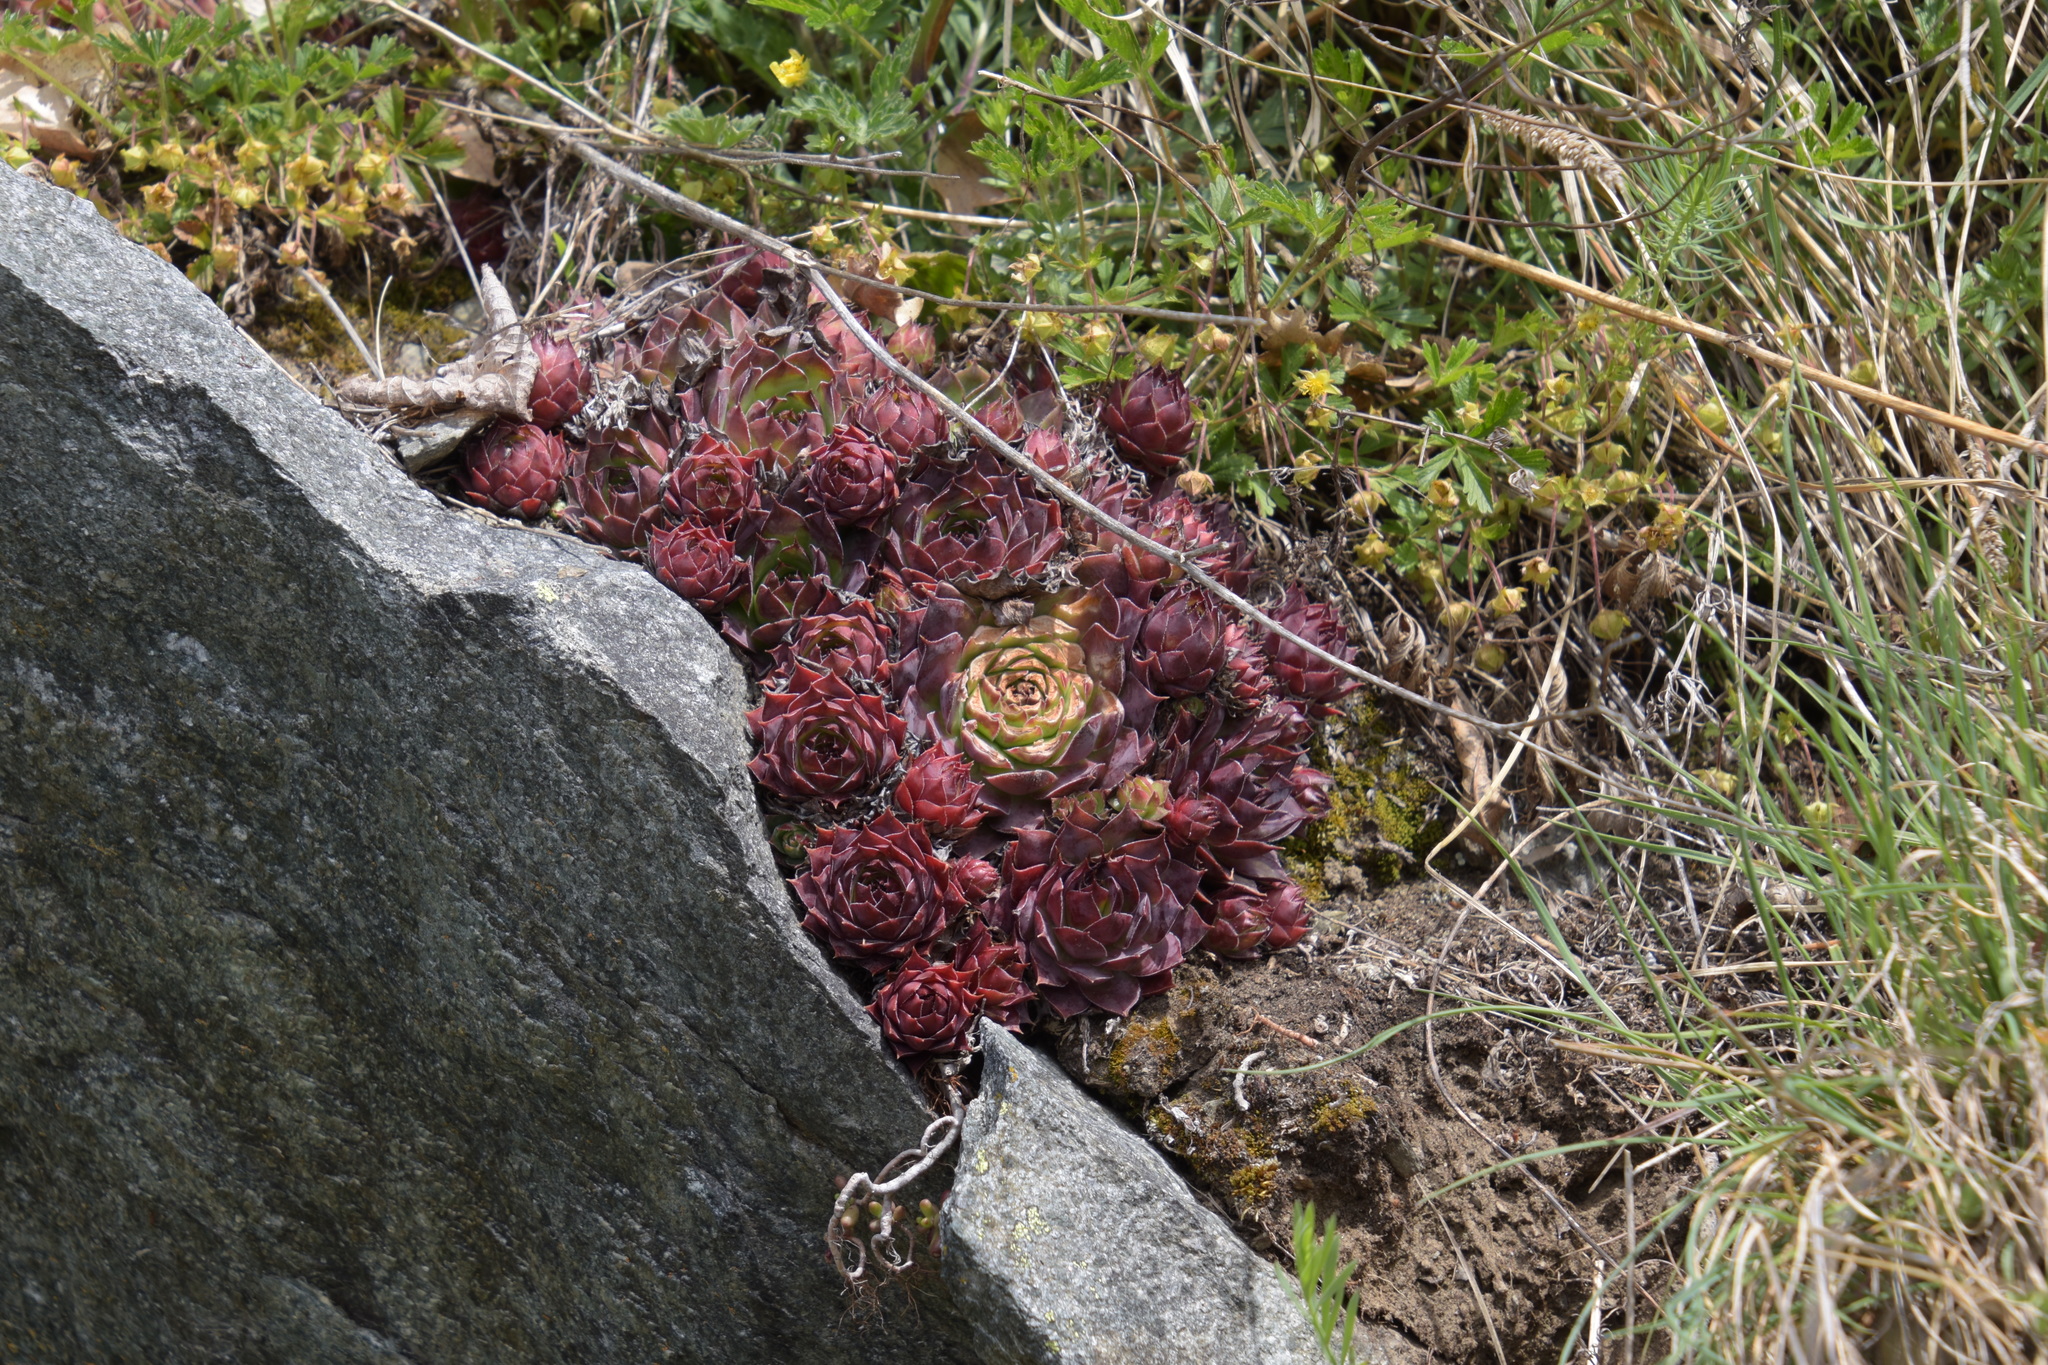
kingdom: Plantae
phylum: Tracheophyta
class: Magnoliopsida
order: Saxifragales
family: Crassulaceae
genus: Sempervivum
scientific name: Sempervivum tectorum
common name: House-leek
